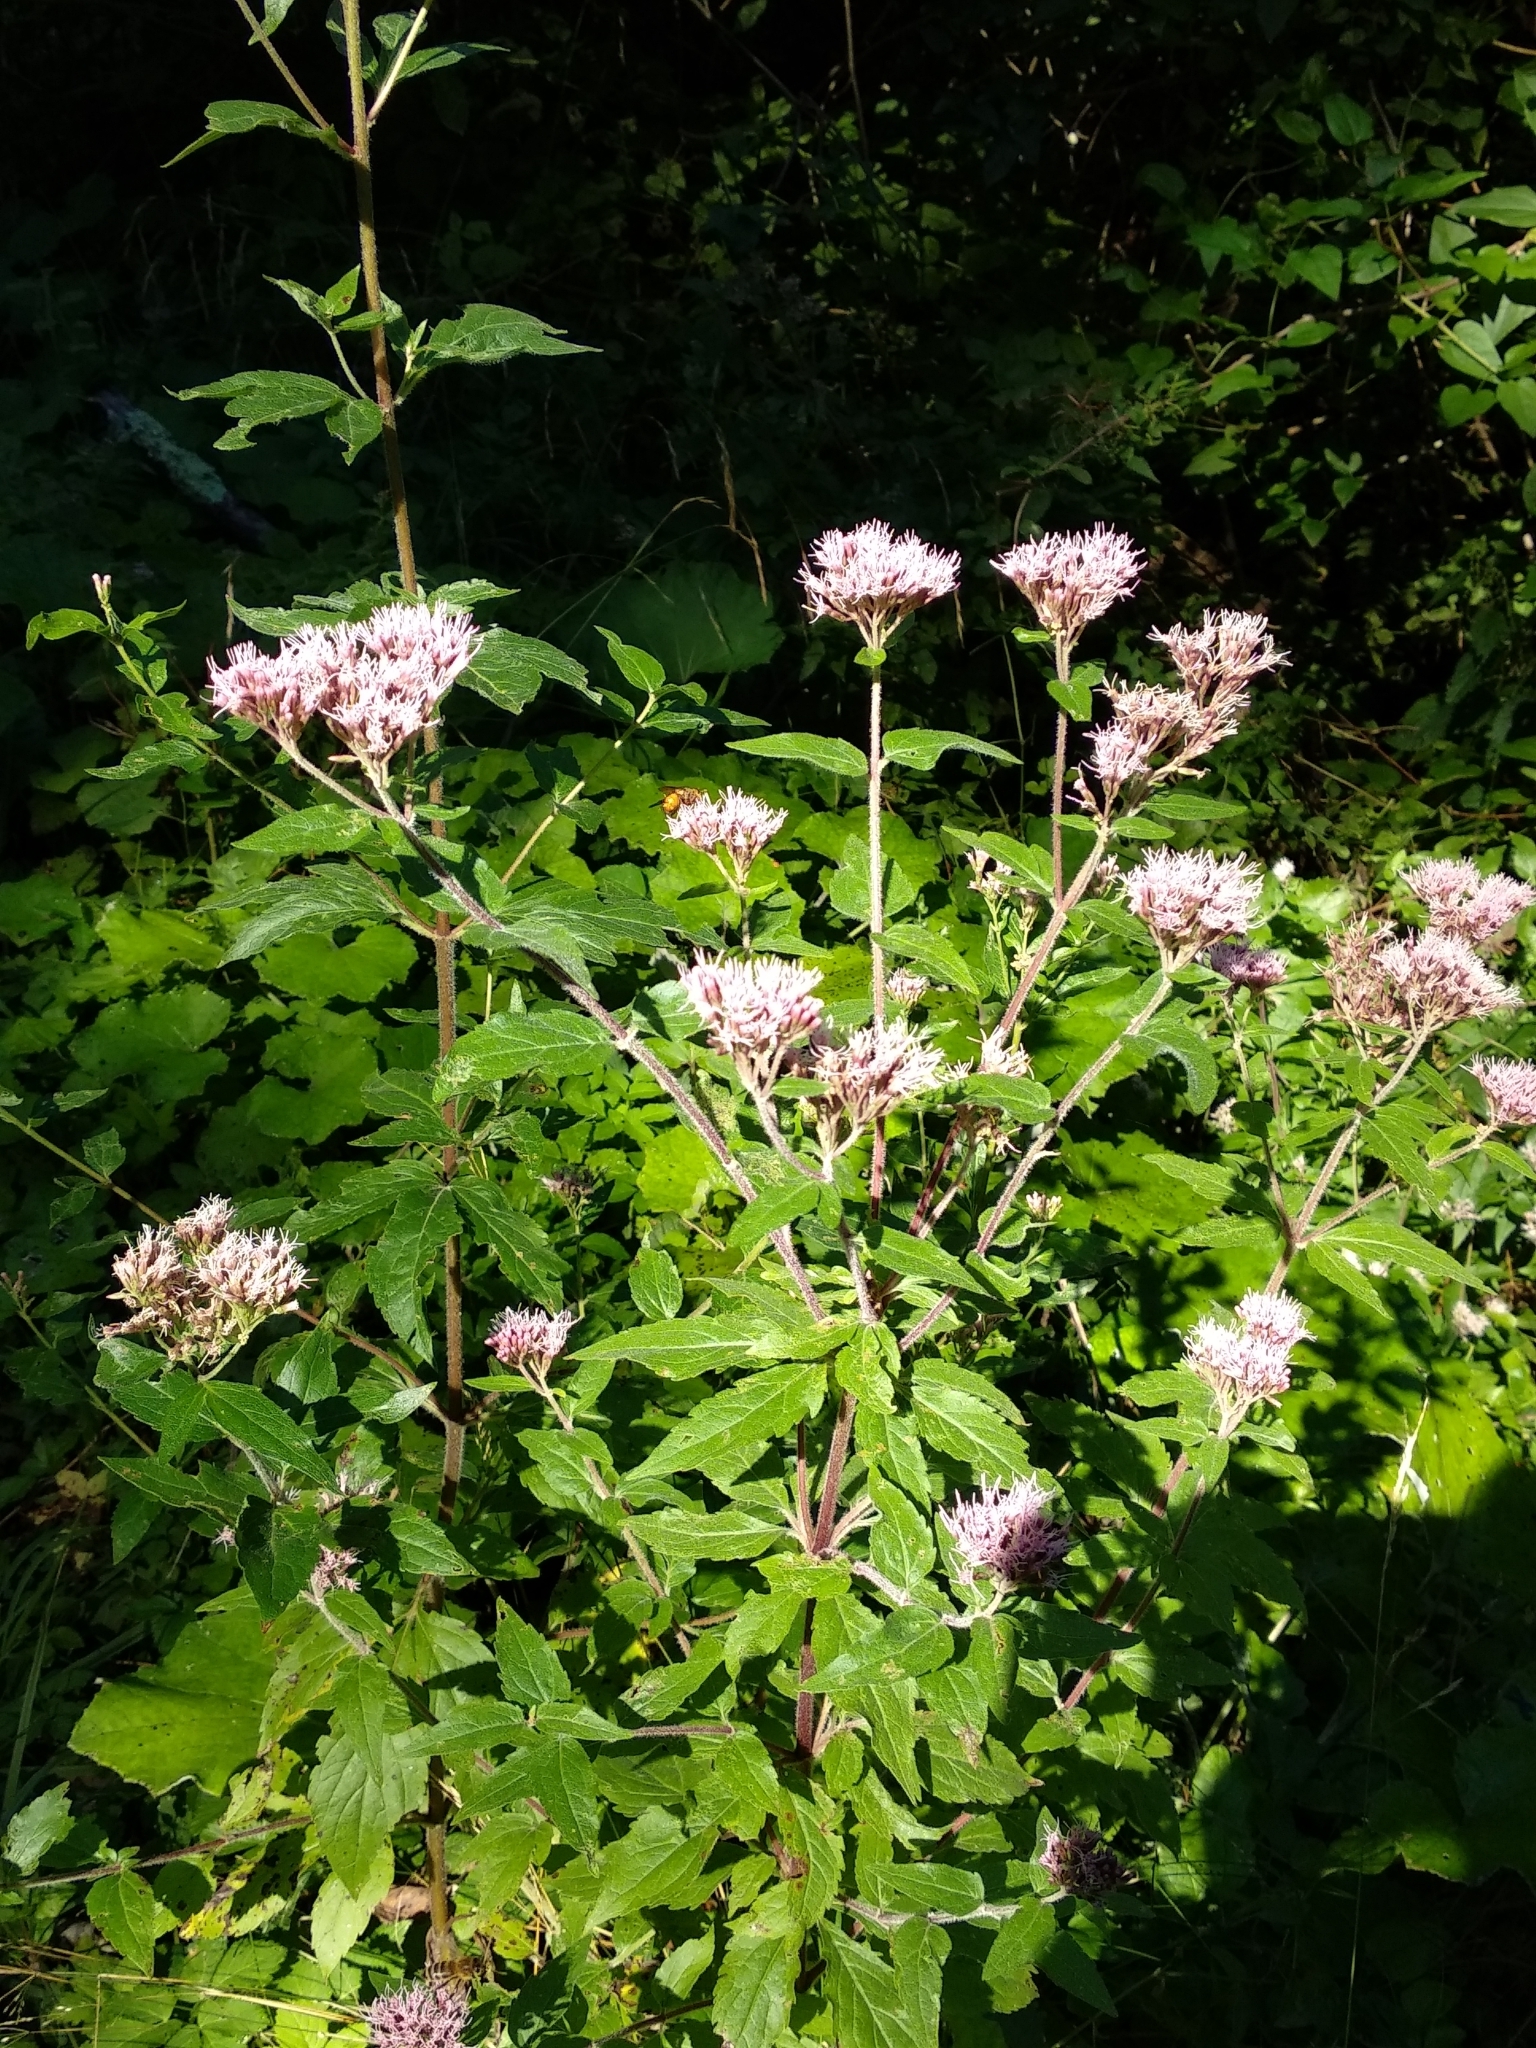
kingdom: Plantae
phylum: Tracheophyta
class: Magnoliopsida
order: Asterales
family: Asteraceae
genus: Eupatorium
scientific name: Eupatorium cannabinum
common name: Hemp-agrimony
